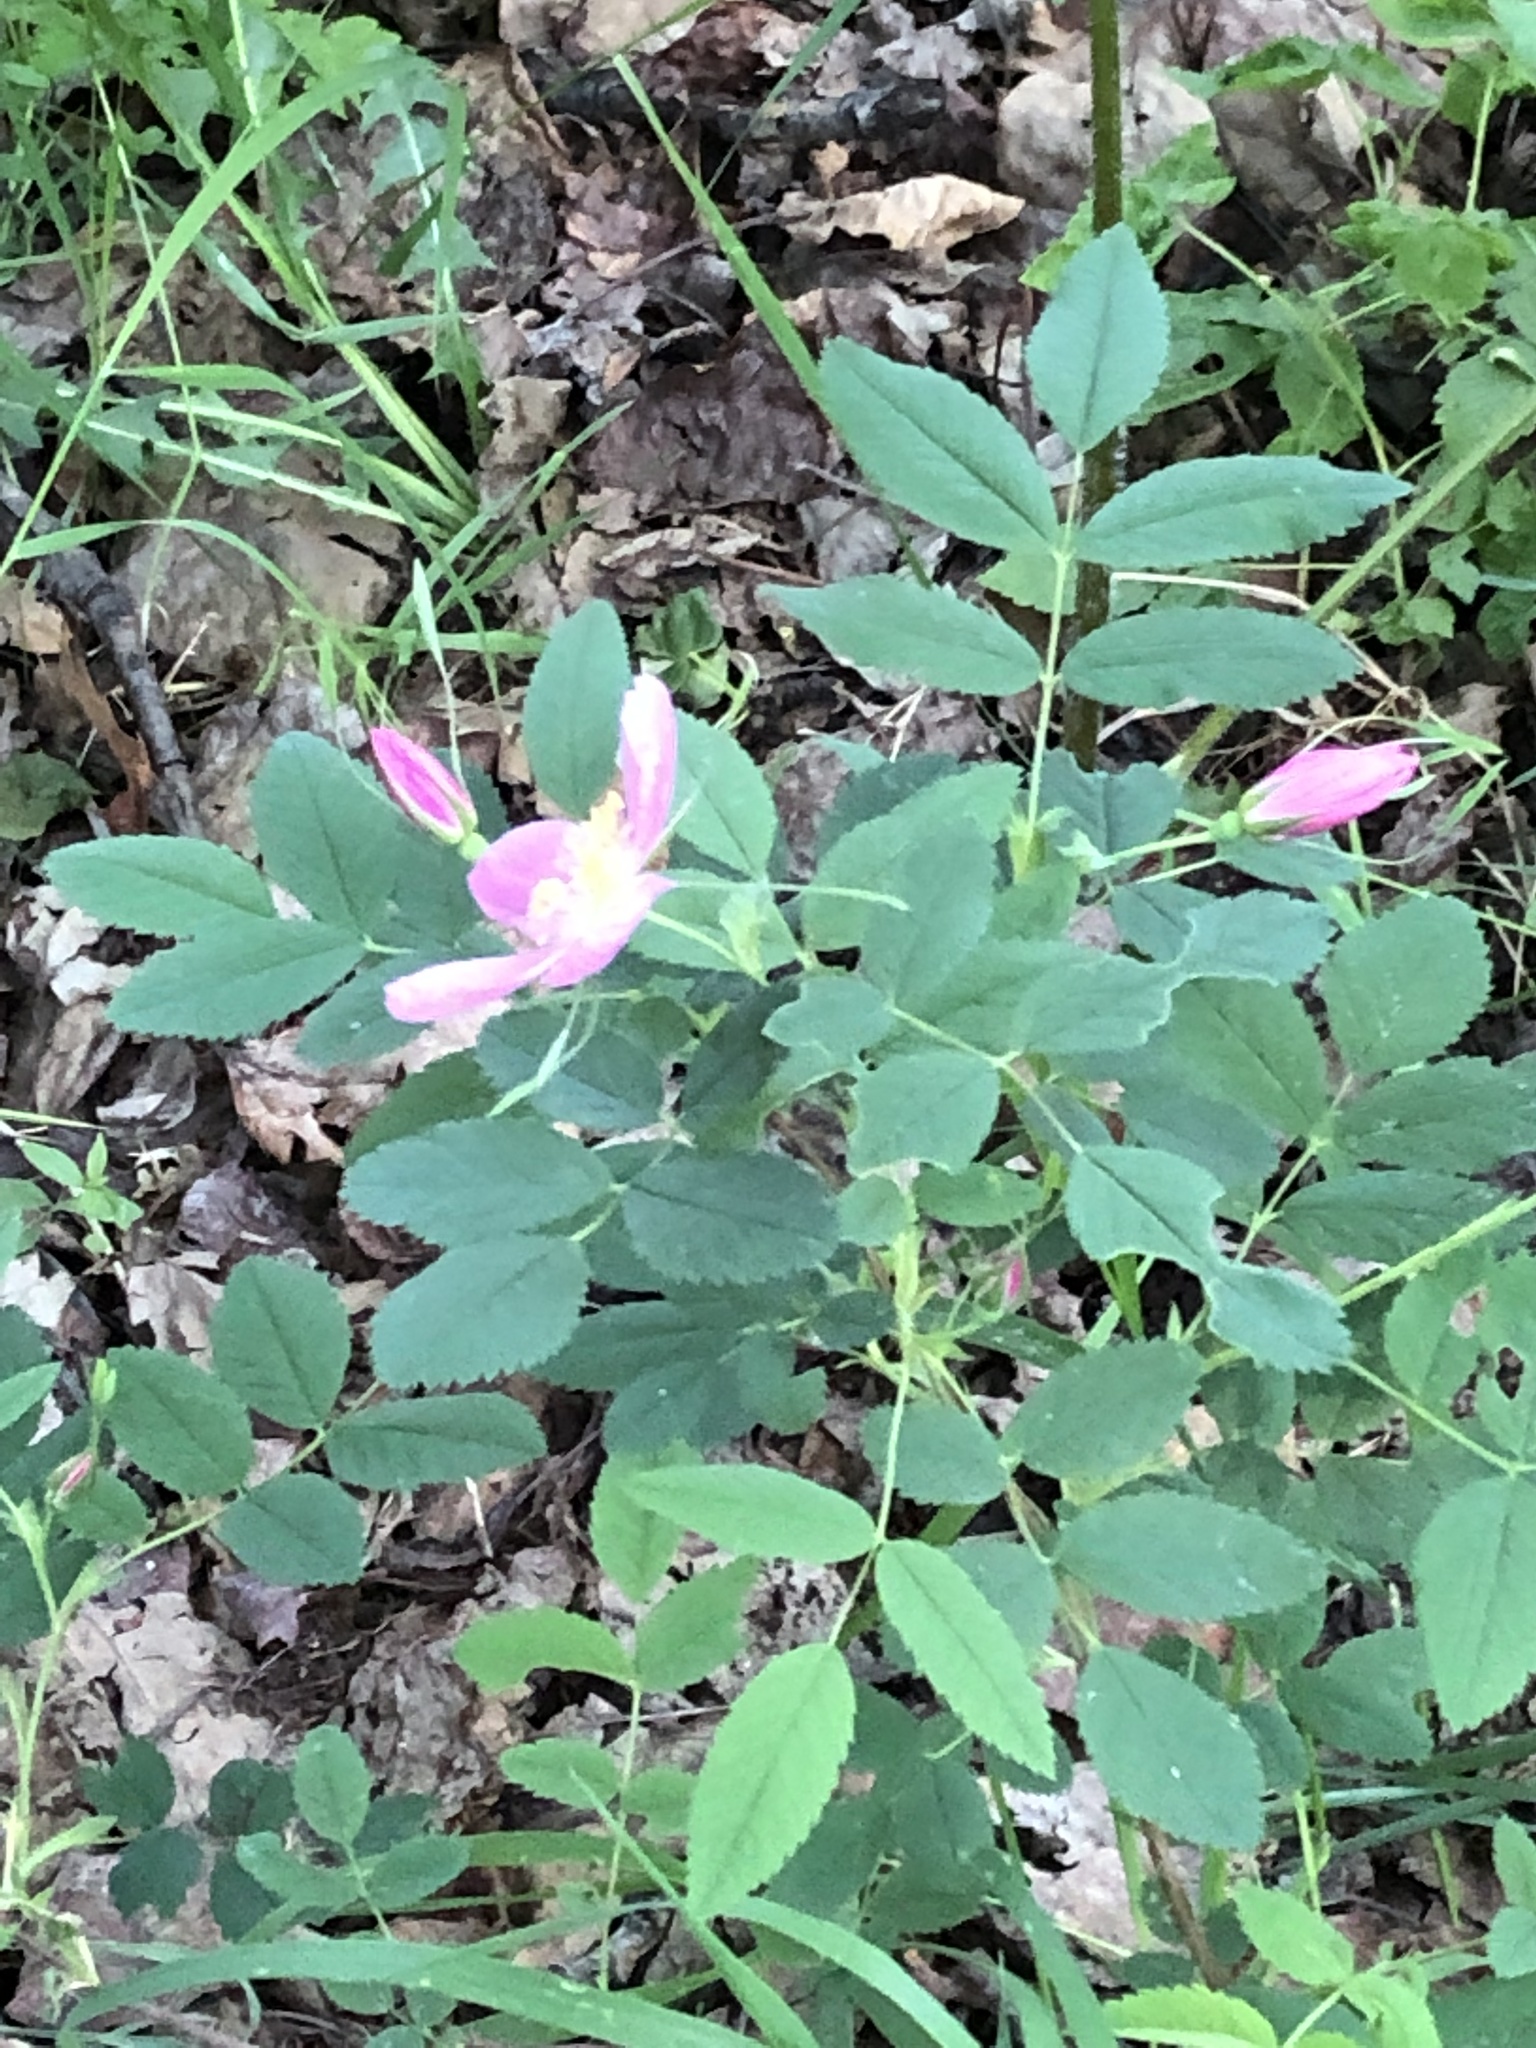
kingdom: Plantae
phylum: Tracheophyta
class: Magnoliopsida
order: Rosales
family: Rosaceae
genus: Rosa
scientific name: Rosa acicularis
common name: Prickly rose
